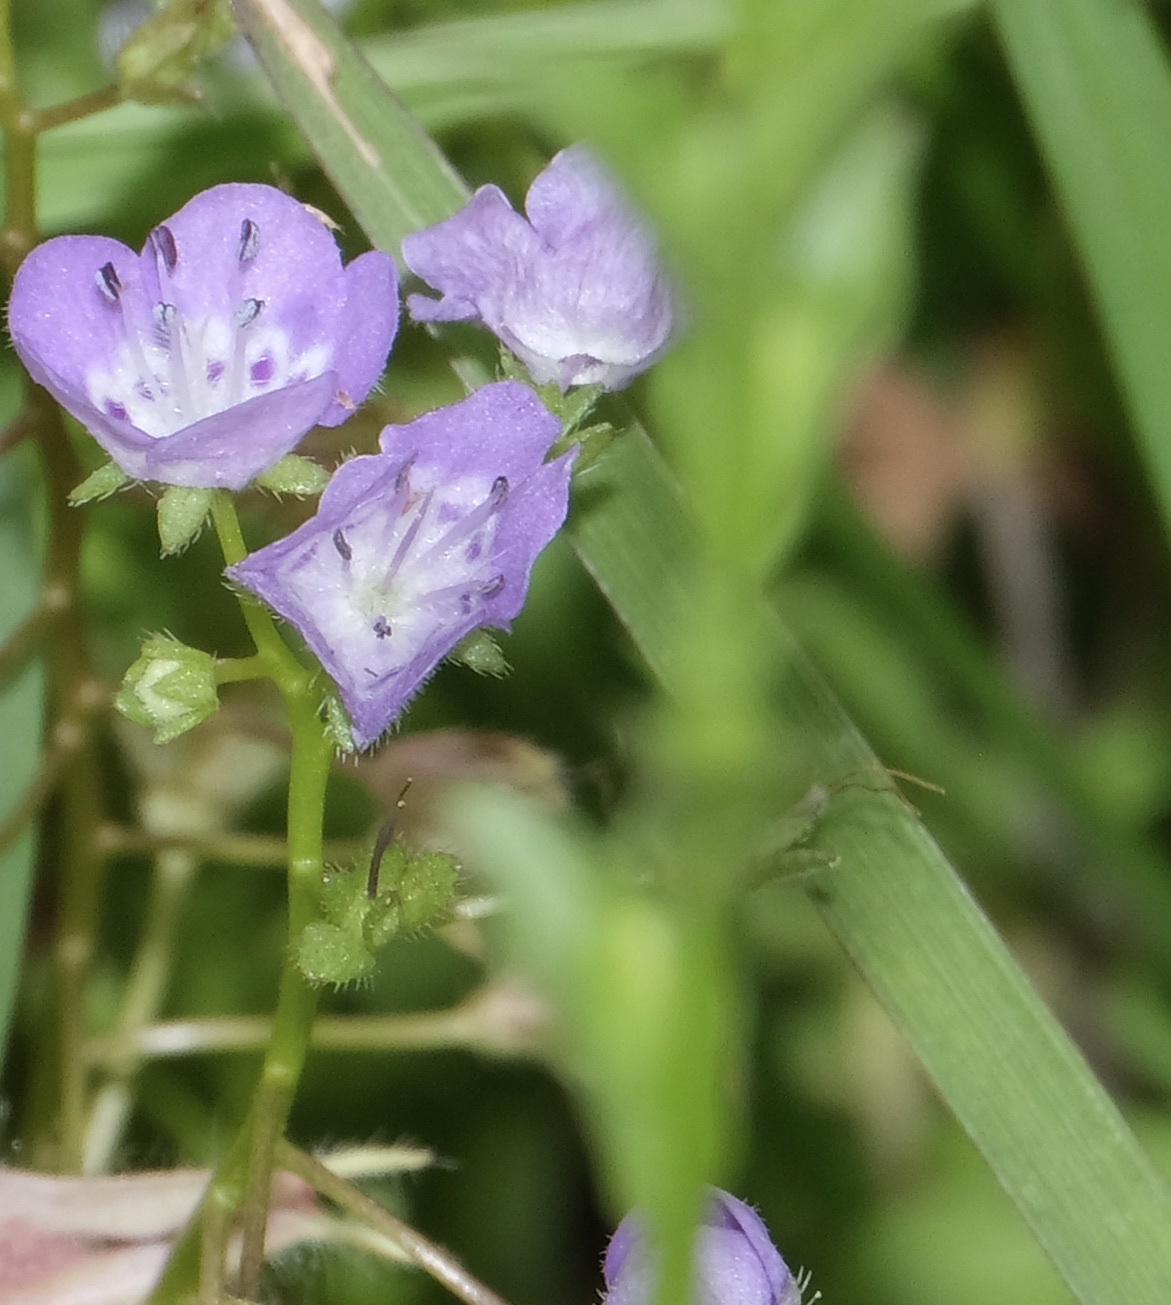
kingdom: Plantae
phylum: Tracheophyta
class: Magnoliopsida
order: Boraginales
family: Hydrophyllaceae
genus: Phacelia
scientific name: Phacelia glabra
